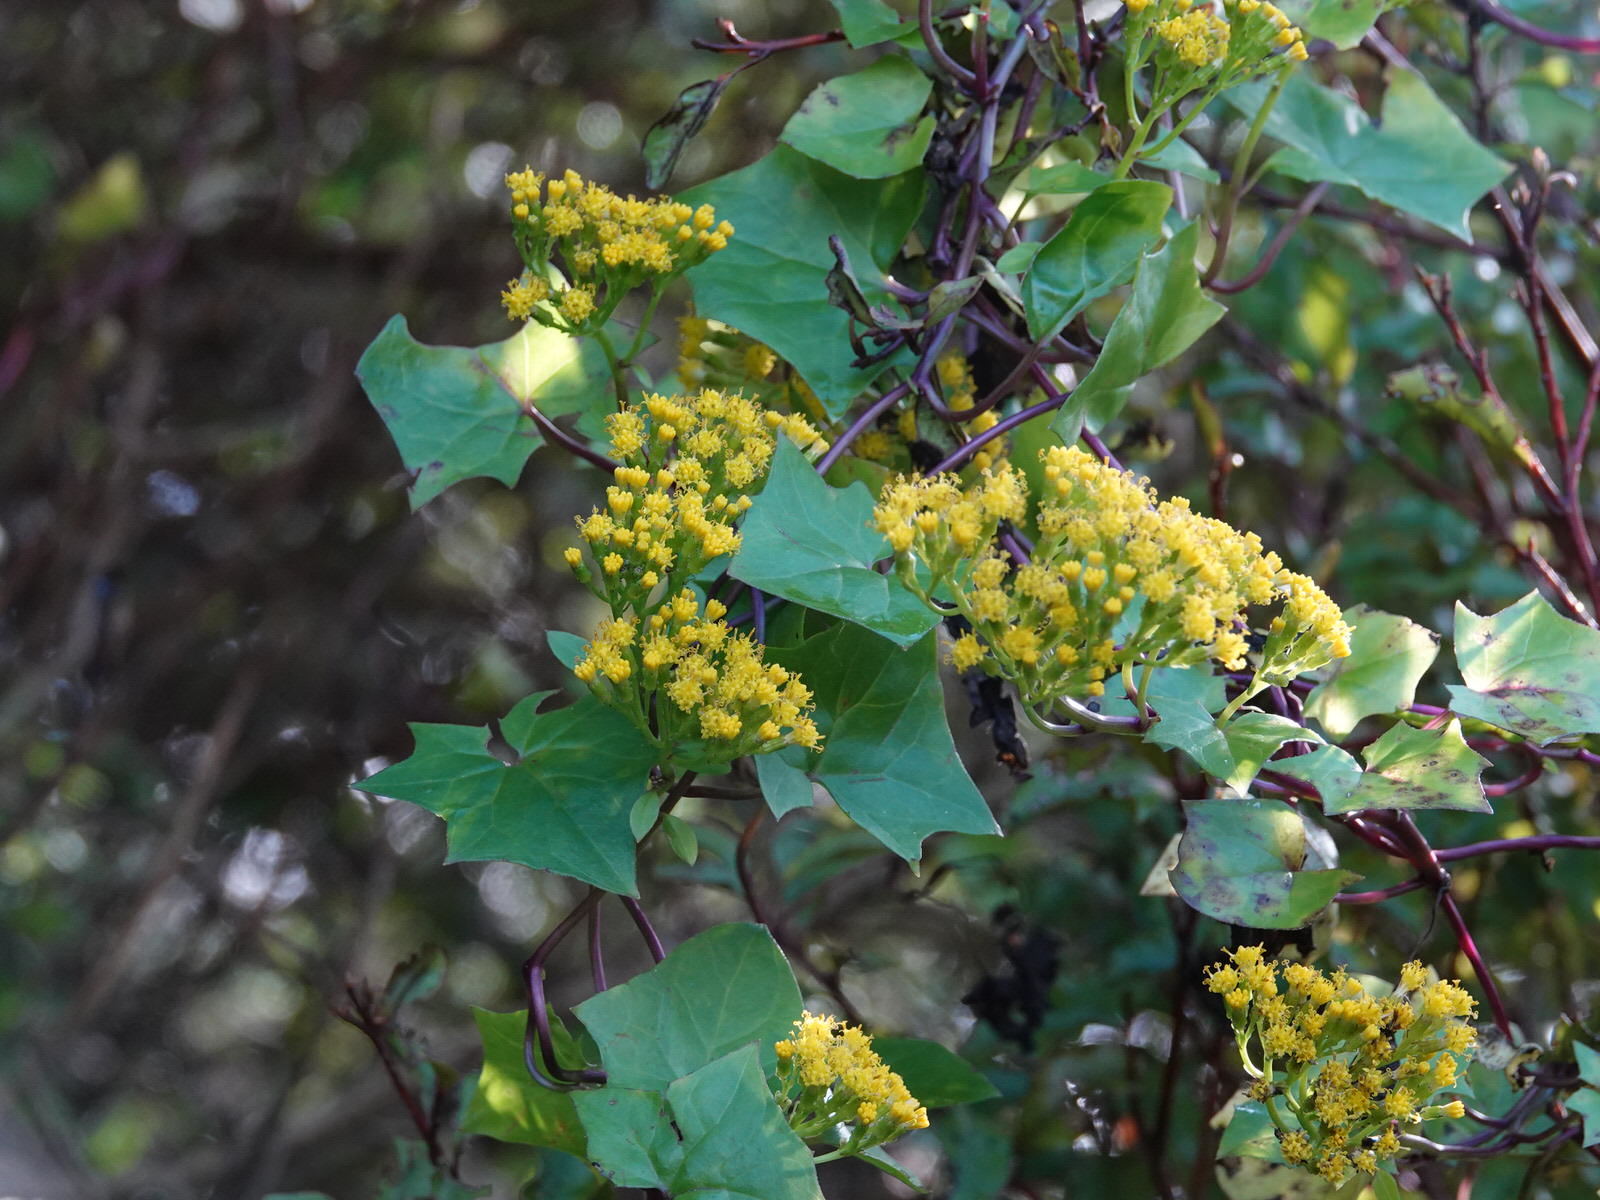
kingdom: Plantae
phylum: Tracheophyta
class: Magnoliopsida
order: Asterales
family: Asteraceae
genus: Delairea
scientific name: Delairea odorata
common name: Cape-ivy
